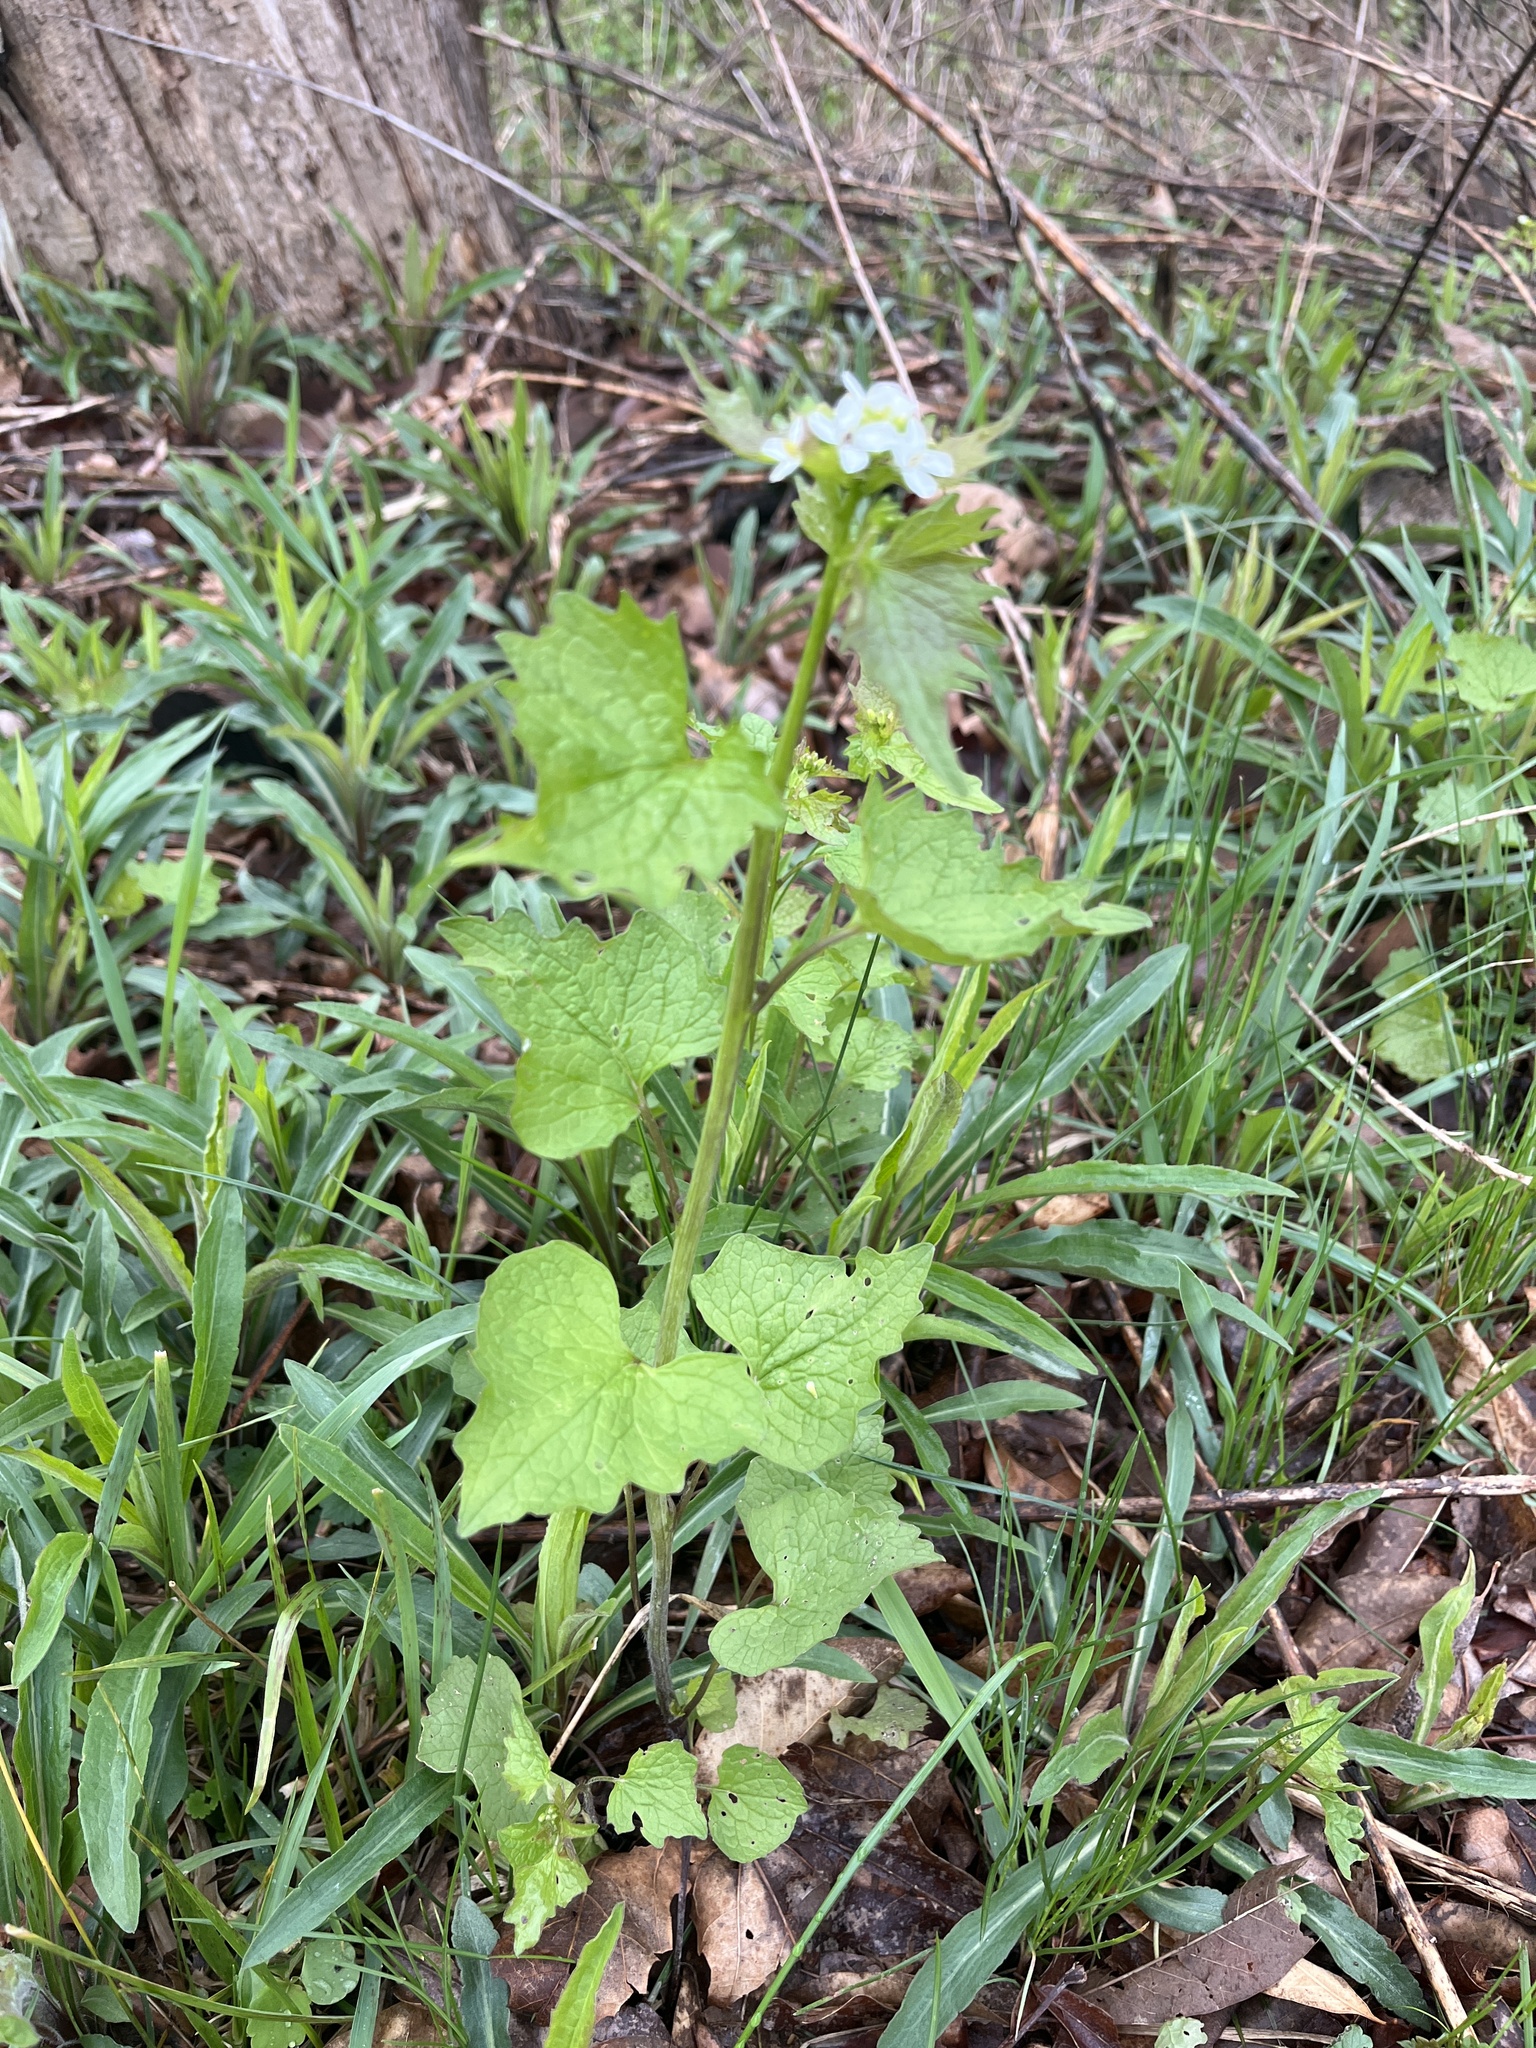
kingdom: Plantae
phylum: Tracheophyta
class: Magnoliopsida
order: Brassicales
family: Brassicaceae
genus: Alliaria
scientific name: Alliaria petiolata
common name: Garlic mustard
